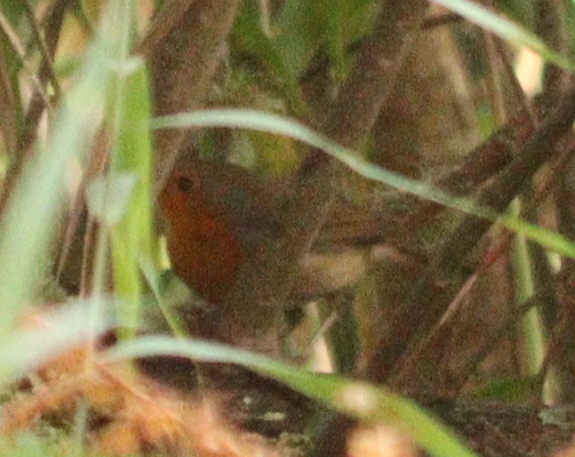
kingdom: Animalia
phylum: Chordata
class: Aves
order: Passeriformes
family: Muscicapidae
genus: Erithacus
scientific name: Erithacus rubecula
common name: European robin
